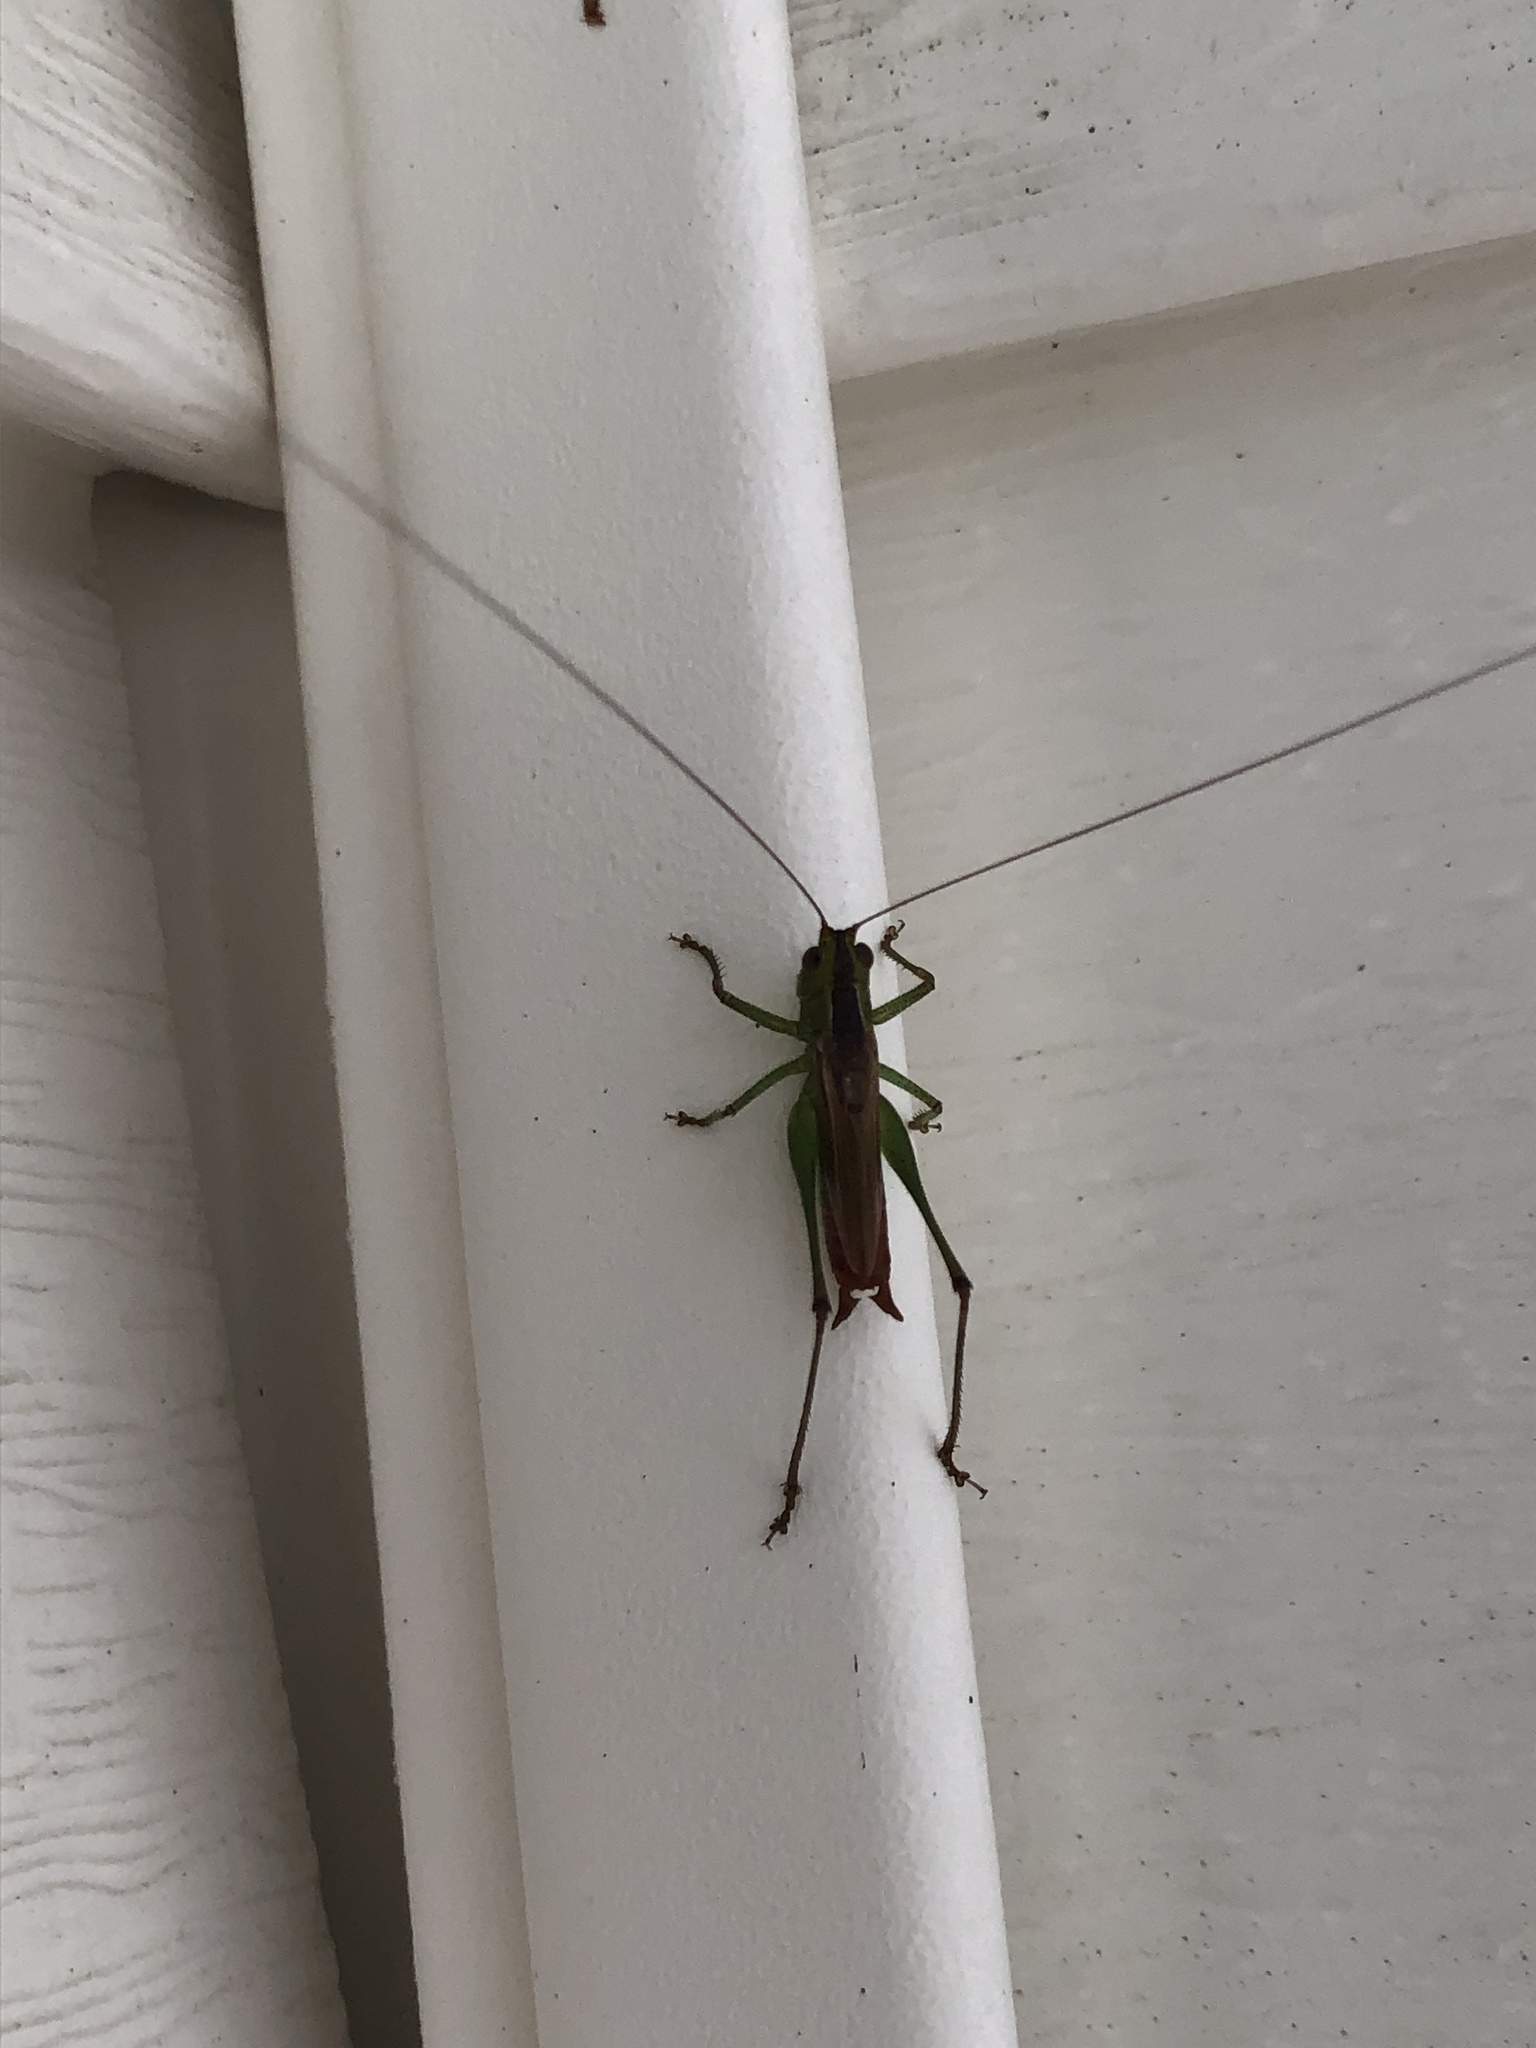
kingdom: Animalia
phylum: Arthropoda
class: Insecta
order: Orthoptera
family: Tettigoniidae
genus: Conocephalus
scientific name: Conocephalus brevipennis
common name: Short-winged meadow katydid
